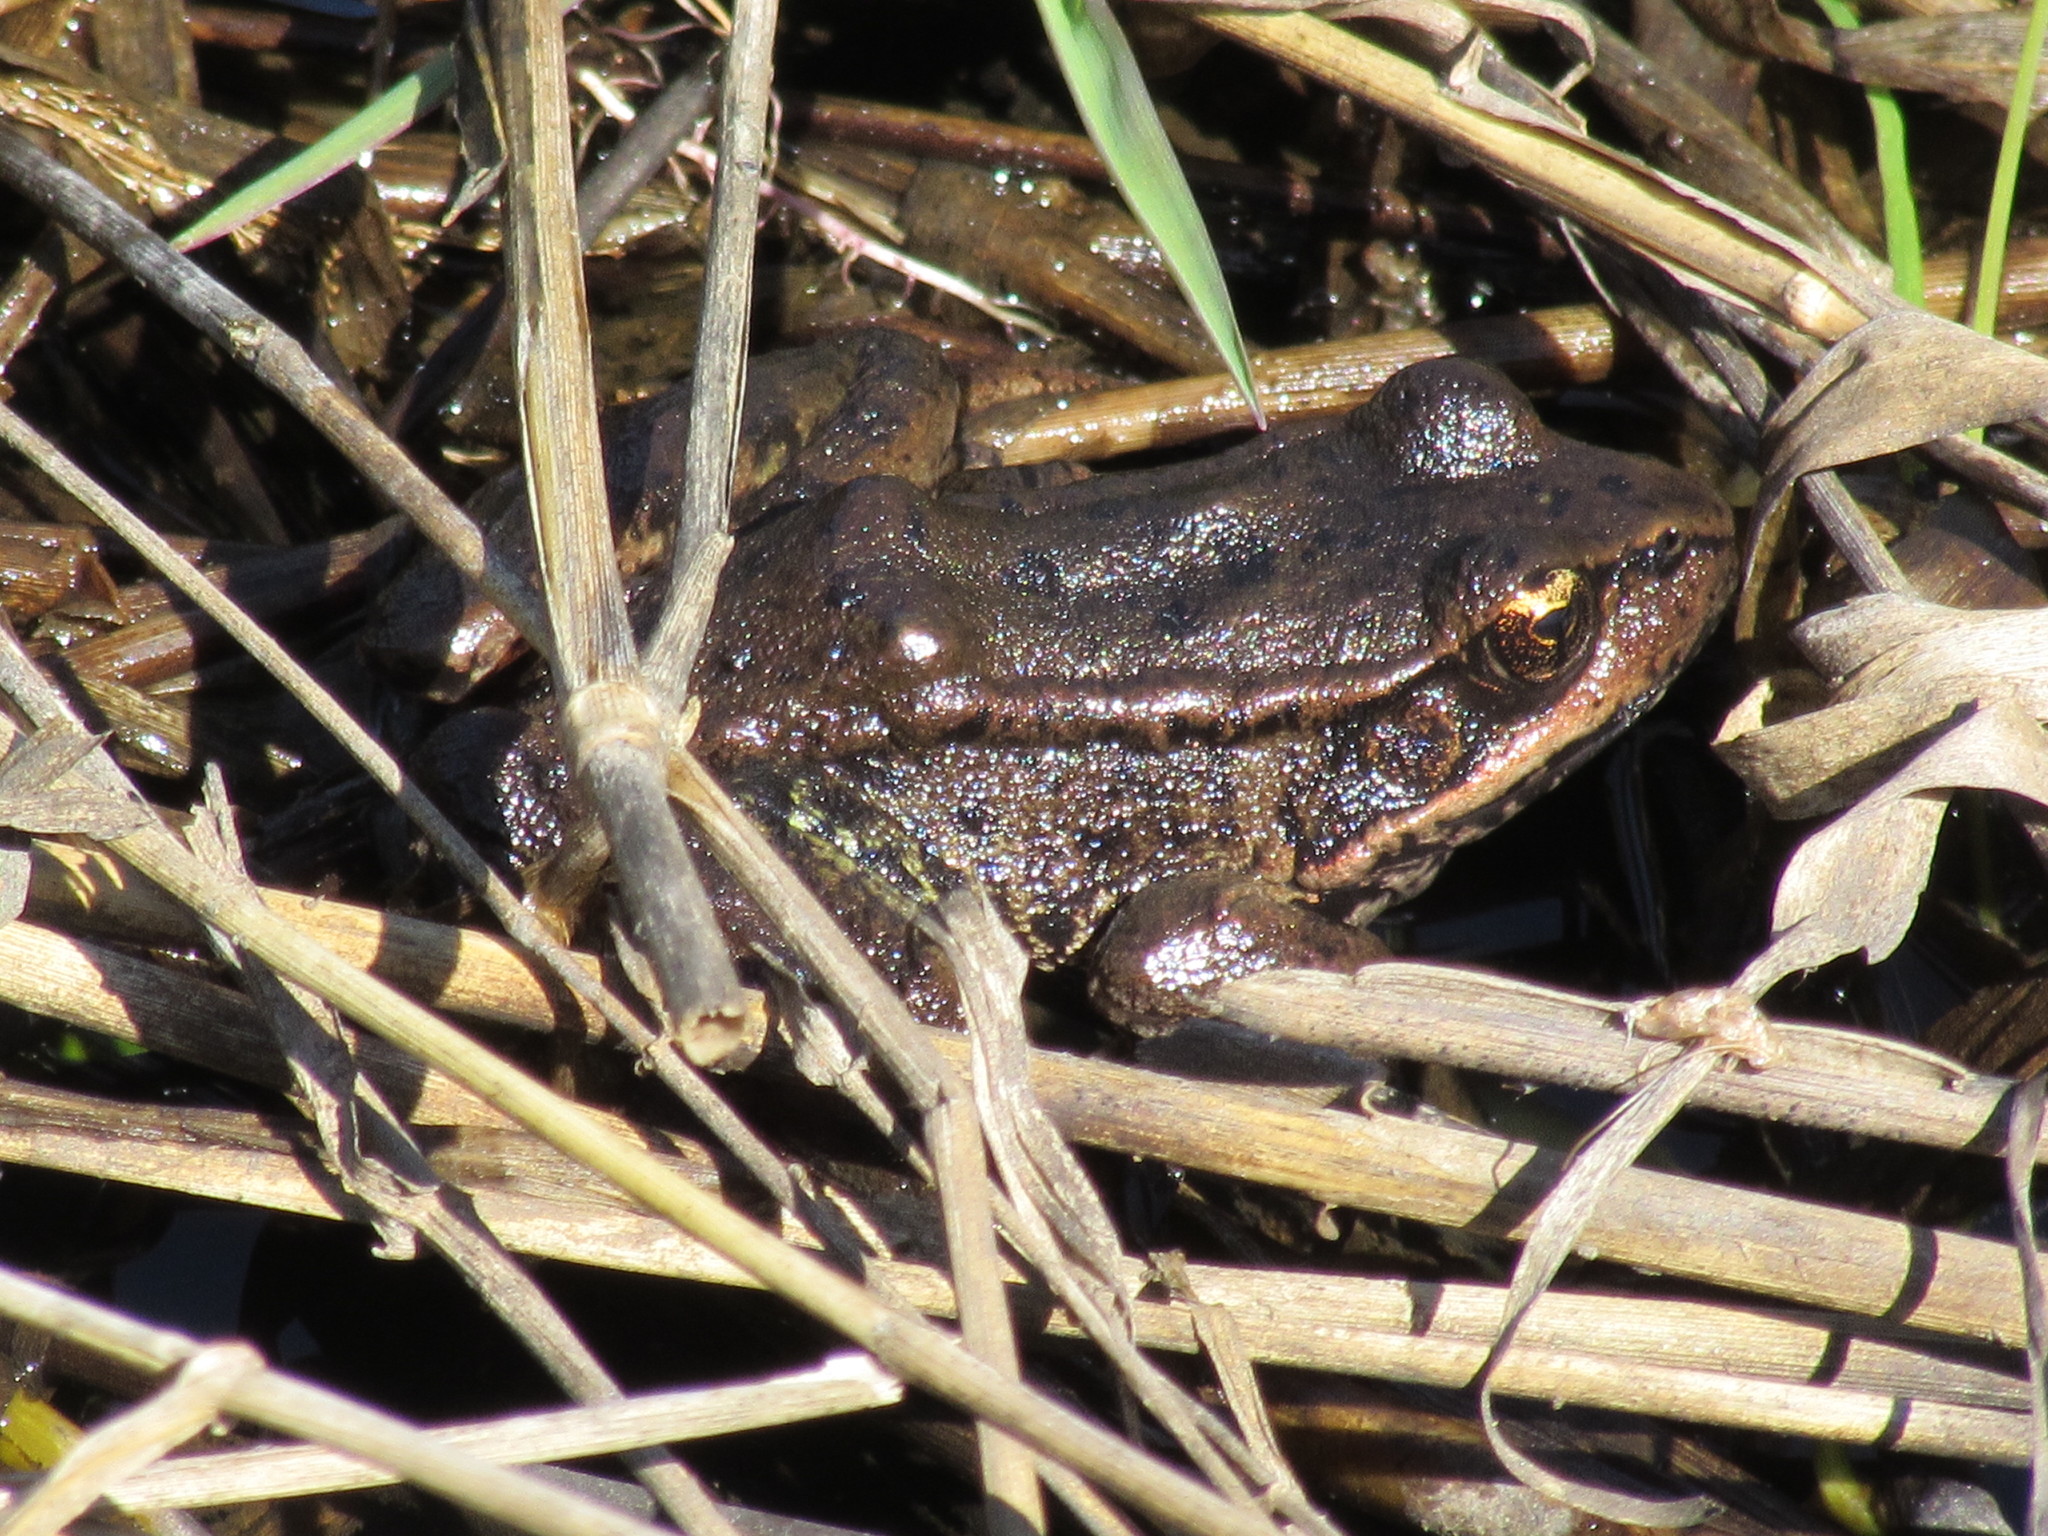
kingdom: Animalia
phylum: Chordata
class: Amphibia
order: Anura
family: Ranidae
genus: Rana
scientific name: Rana aurora
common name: Red-legged frog
